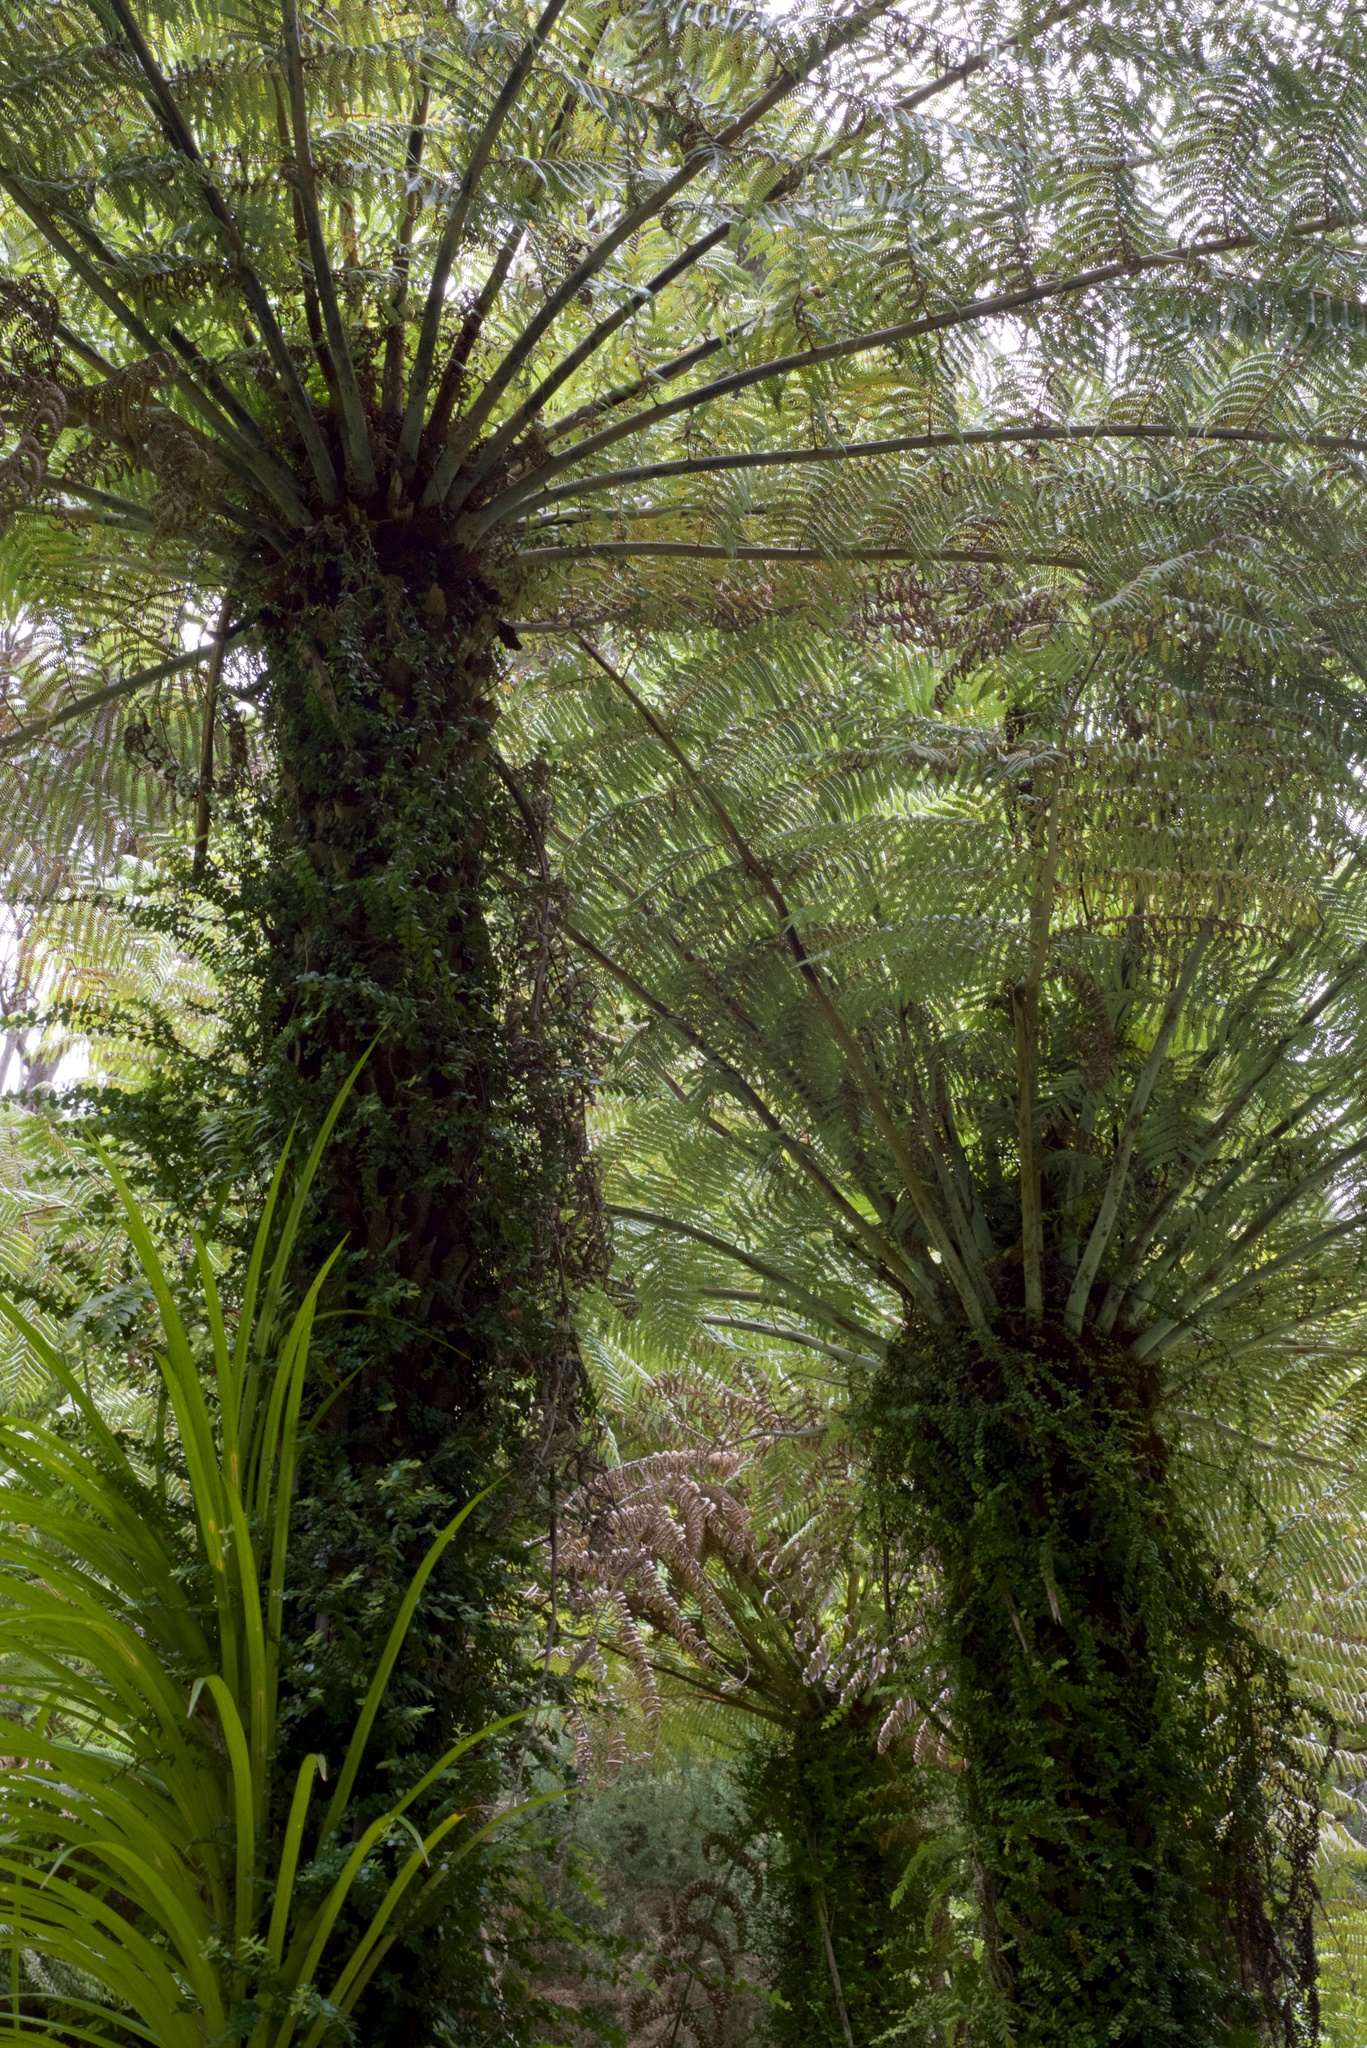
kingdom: Plantae
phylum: Tracheophyta
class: Polypodiopsida
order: Cyatheales
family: Cyatheaceae
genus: Alsophila
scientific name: Alsophila dealbata
